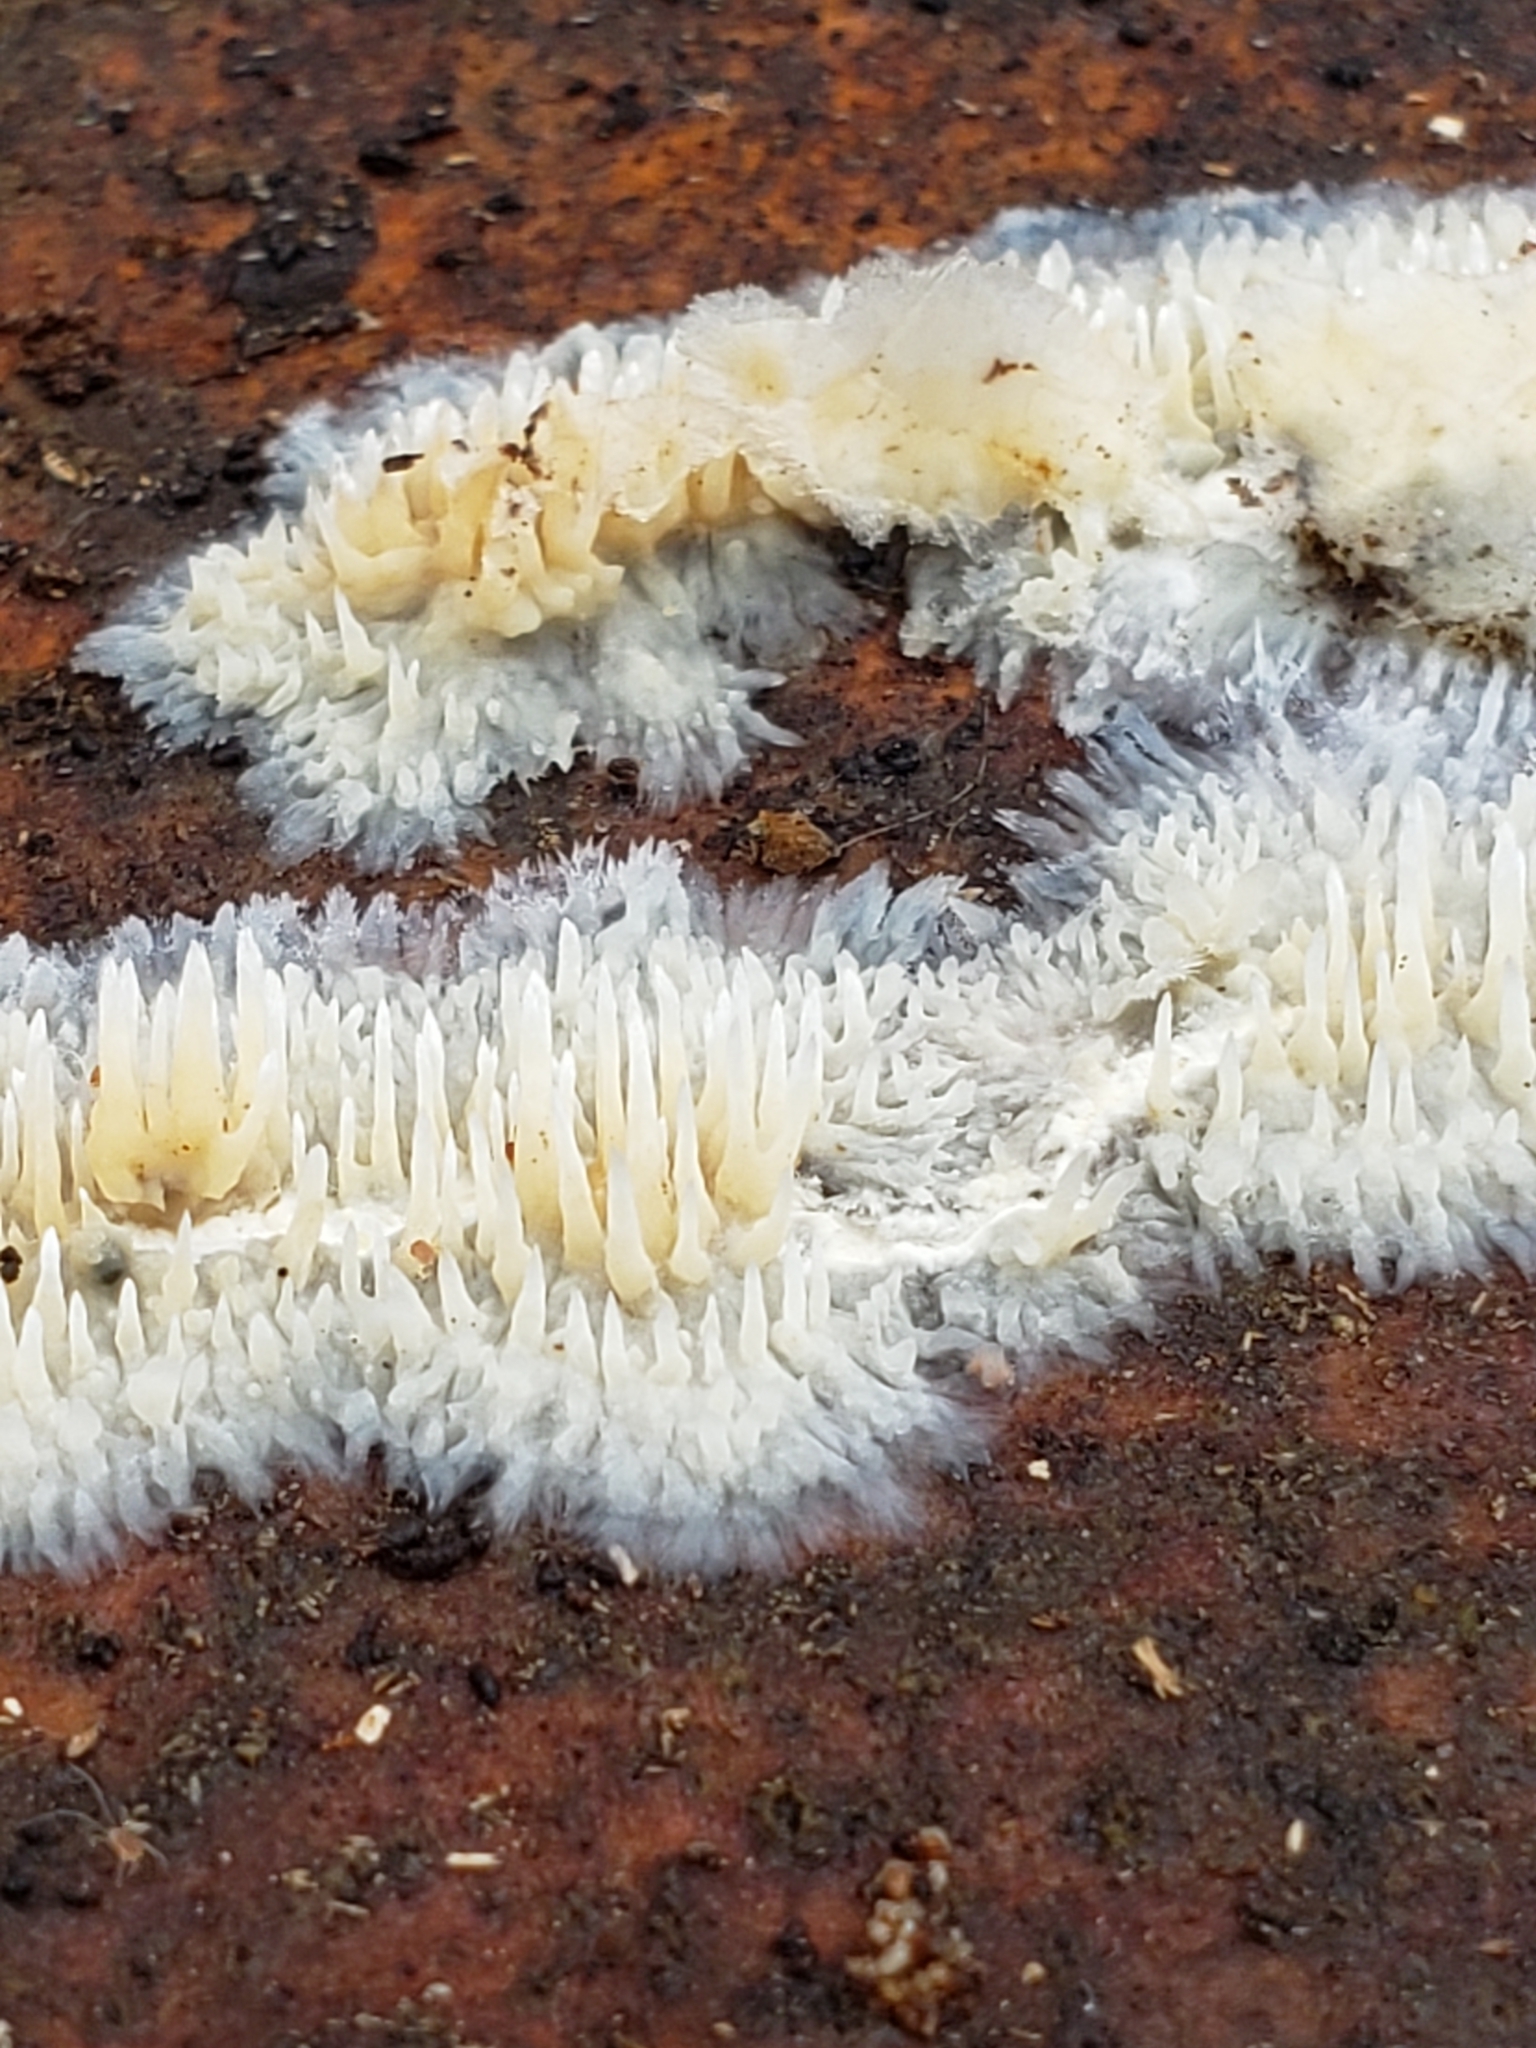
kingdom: Fungi
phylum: Basidiomycota
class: Agaricomycetes
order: Agaricales
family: Radulomycetaceae
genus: Radulomyces
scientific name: Radulomyces copelandii
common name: Asian beauty
